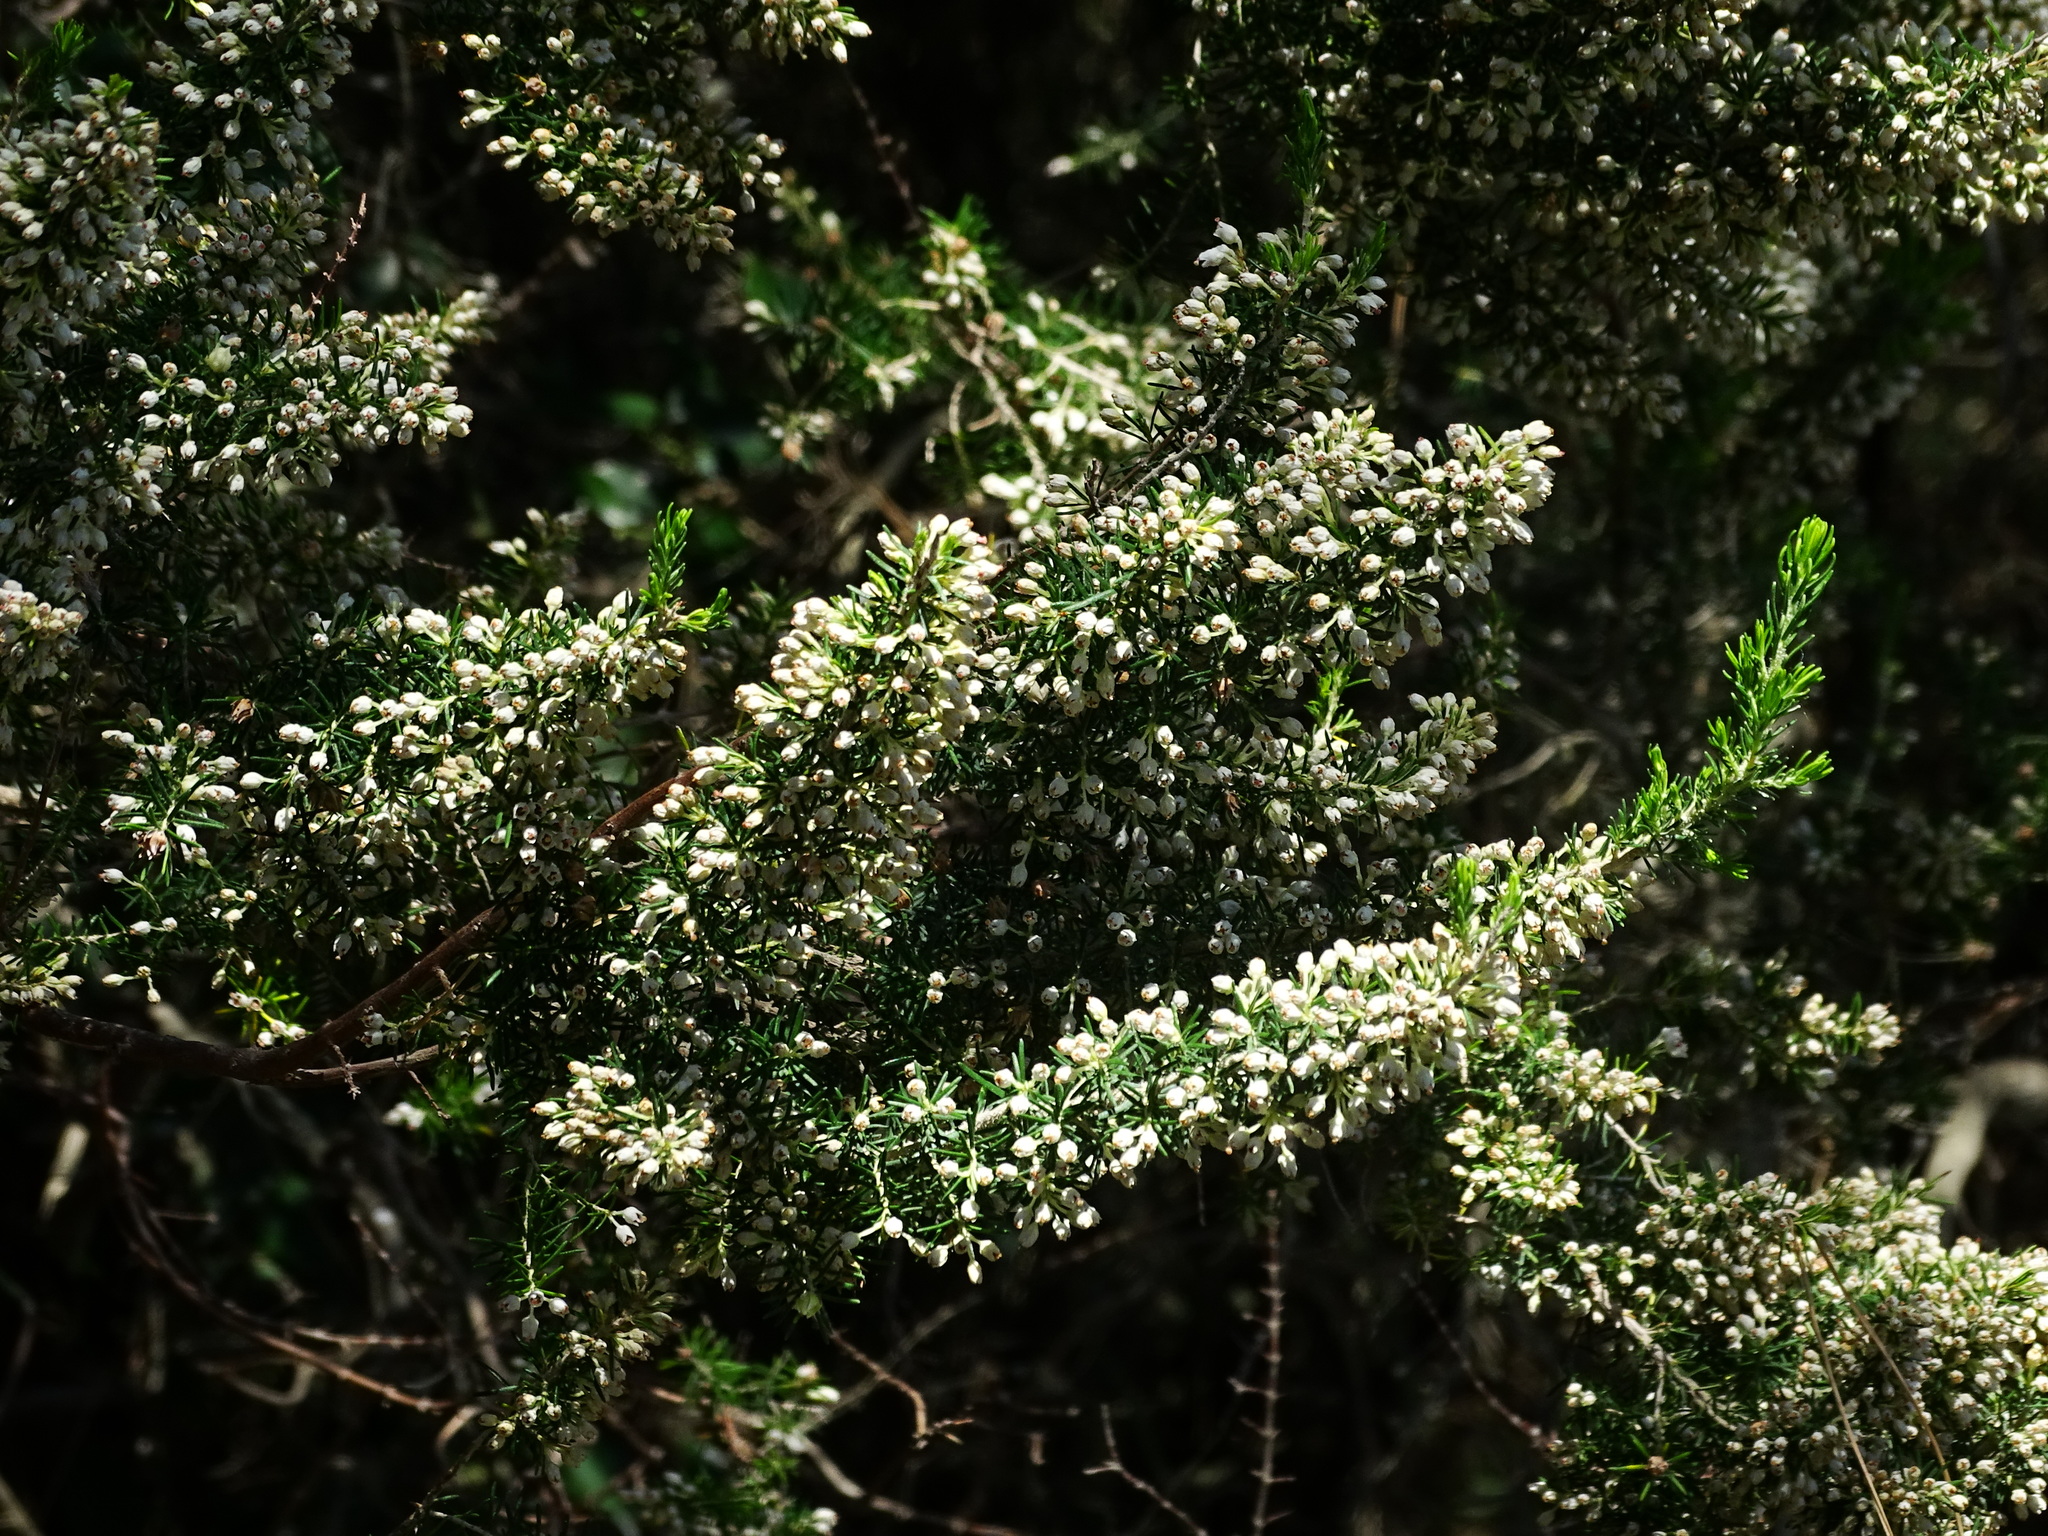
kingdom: Plantae
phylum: Tracheophyta
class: Magnoliopsida
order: Ericales
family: Ericaceae
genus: Erica
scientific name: Erica arborea
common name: Tree heath
